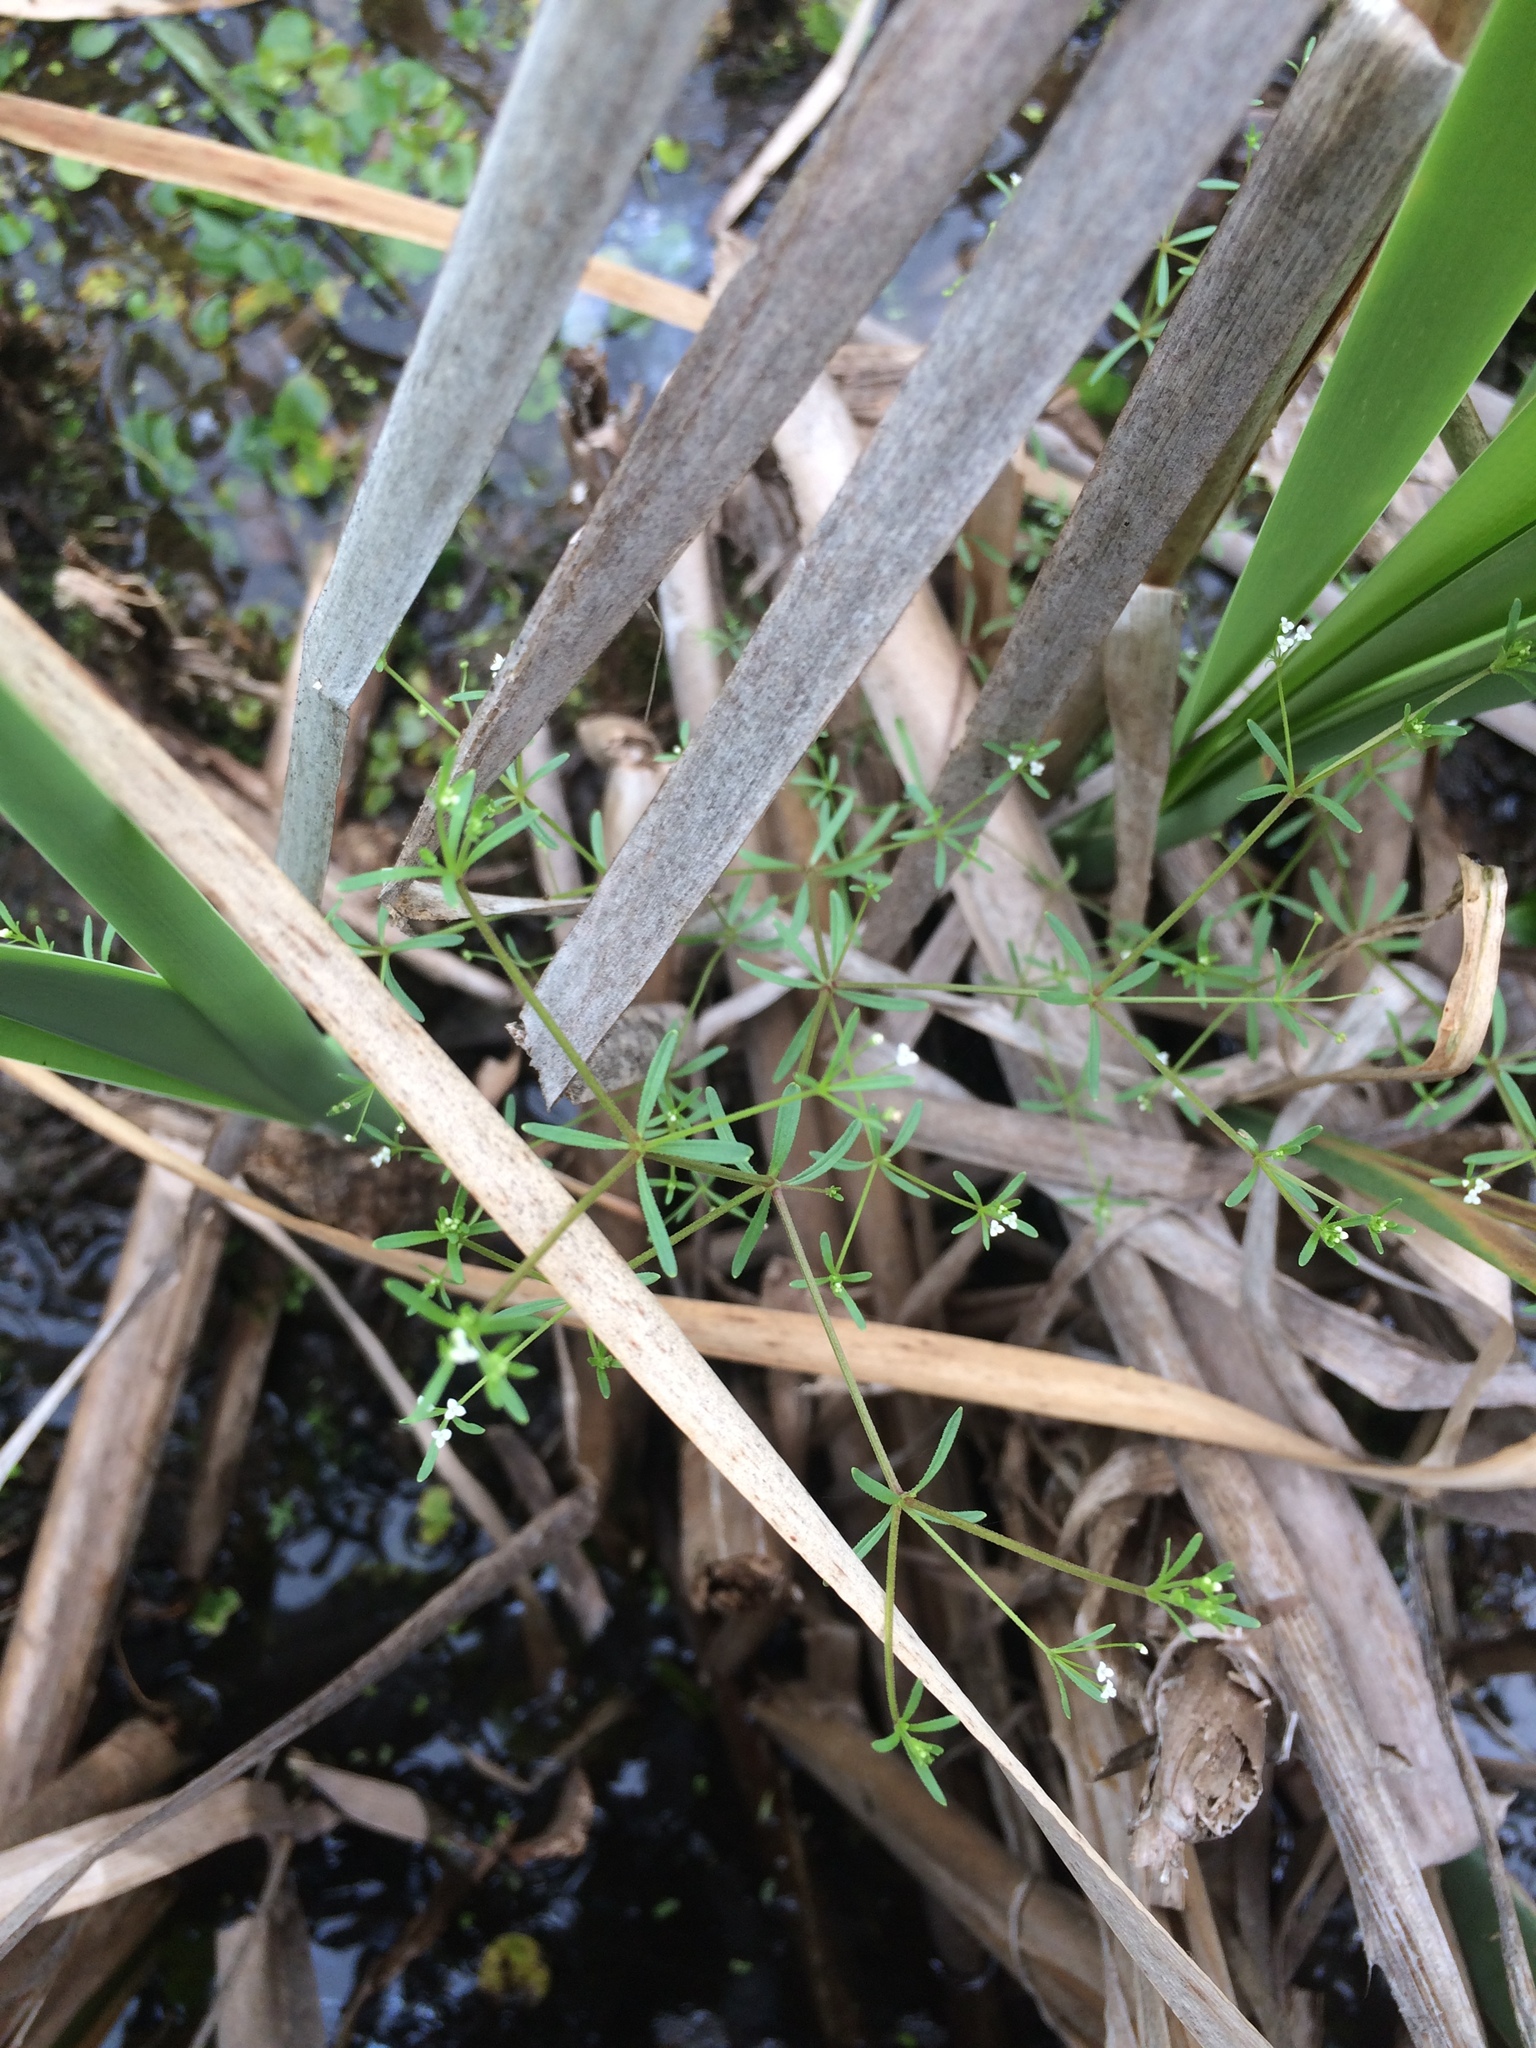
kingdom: Plantae
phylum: Tracheophyta
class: Magnoliopsida
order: Gentianales
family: Rubiaceae
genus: Galium
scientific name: Galium trifidum
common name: Small bedstraw
